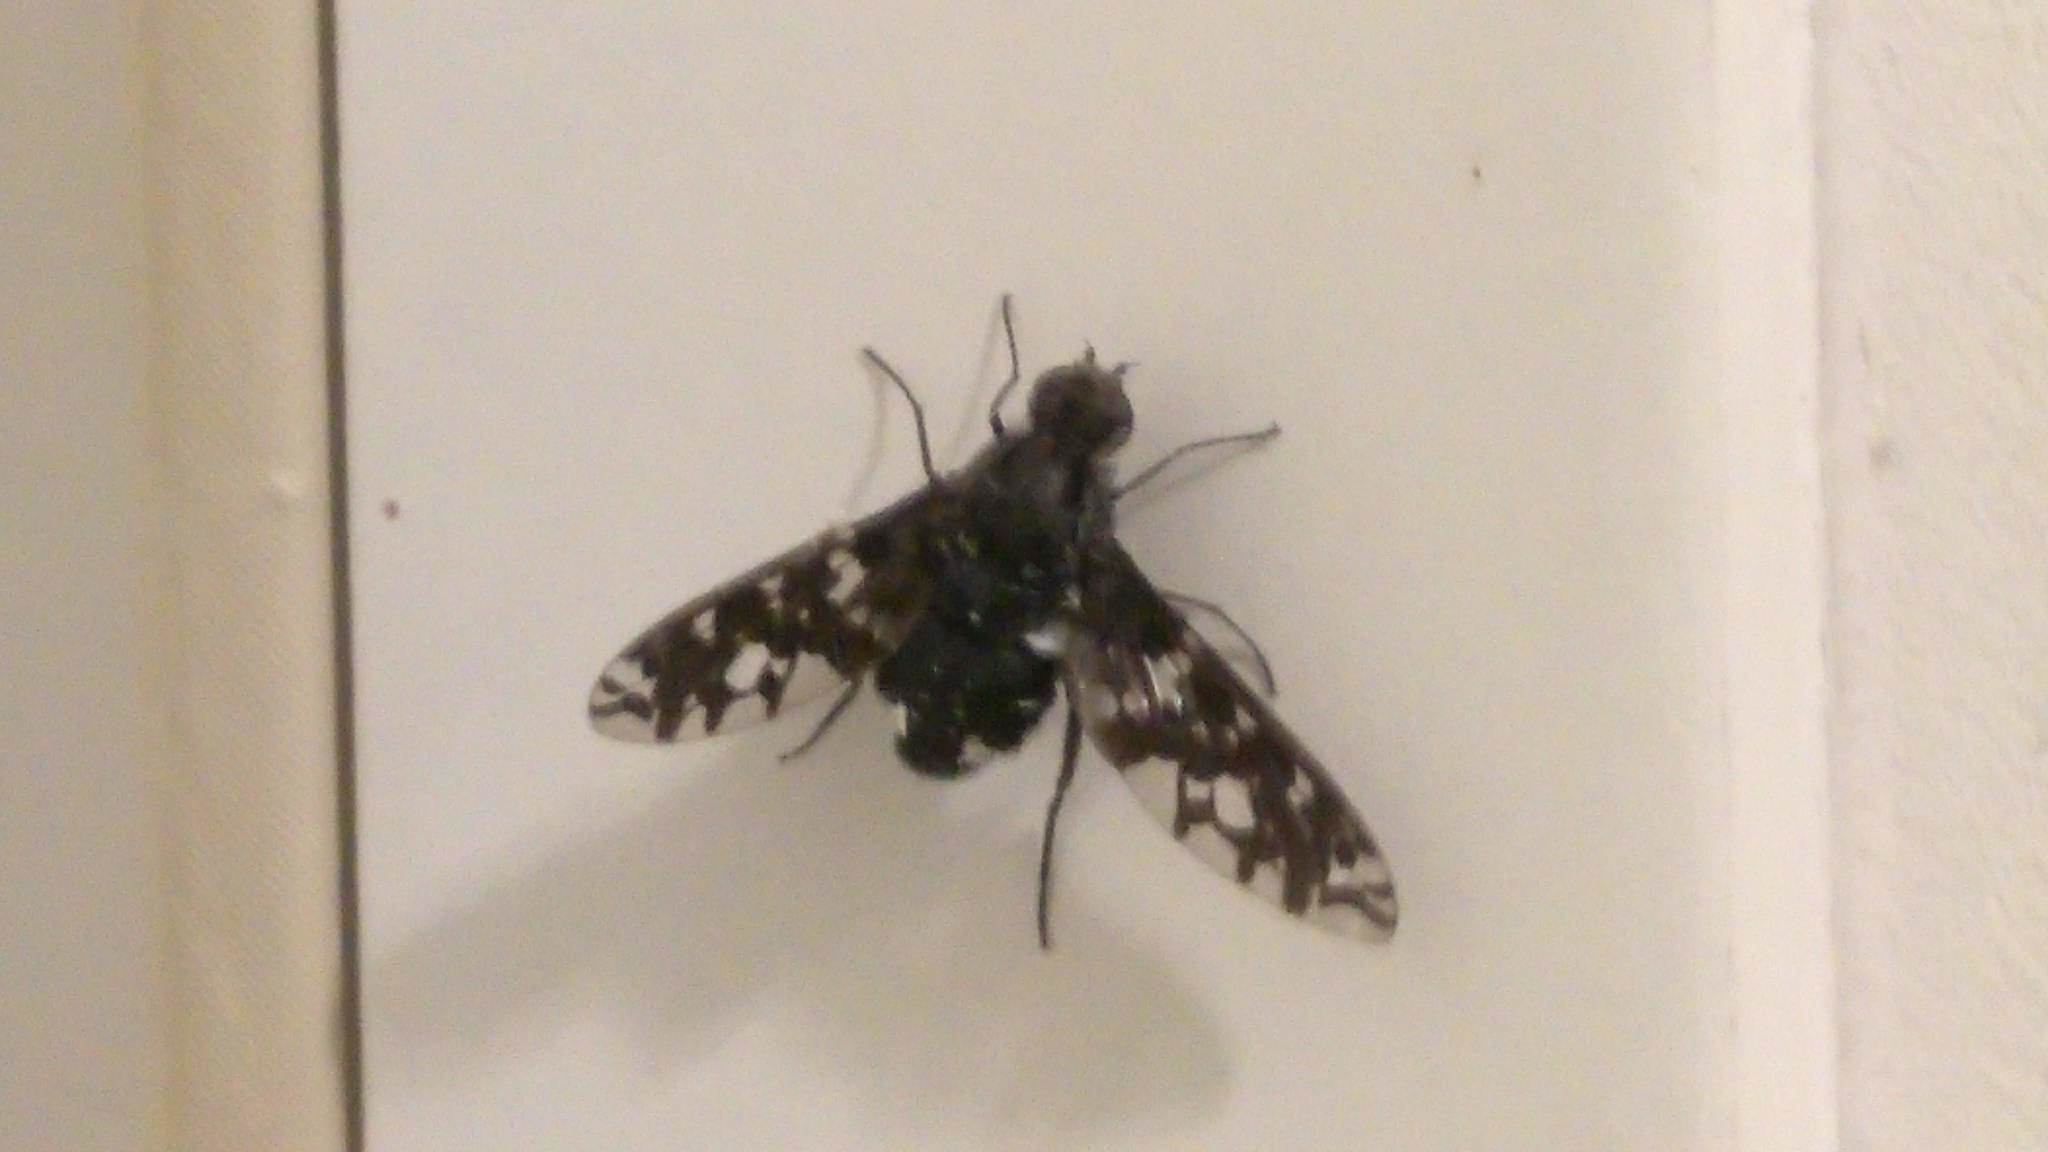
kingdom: Animalia
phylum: Arthropoda
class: Insecta
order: Diptera
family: Bombyliidae
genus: Xenox
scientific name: Xenox tigrinus
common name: Tiger bee fly
